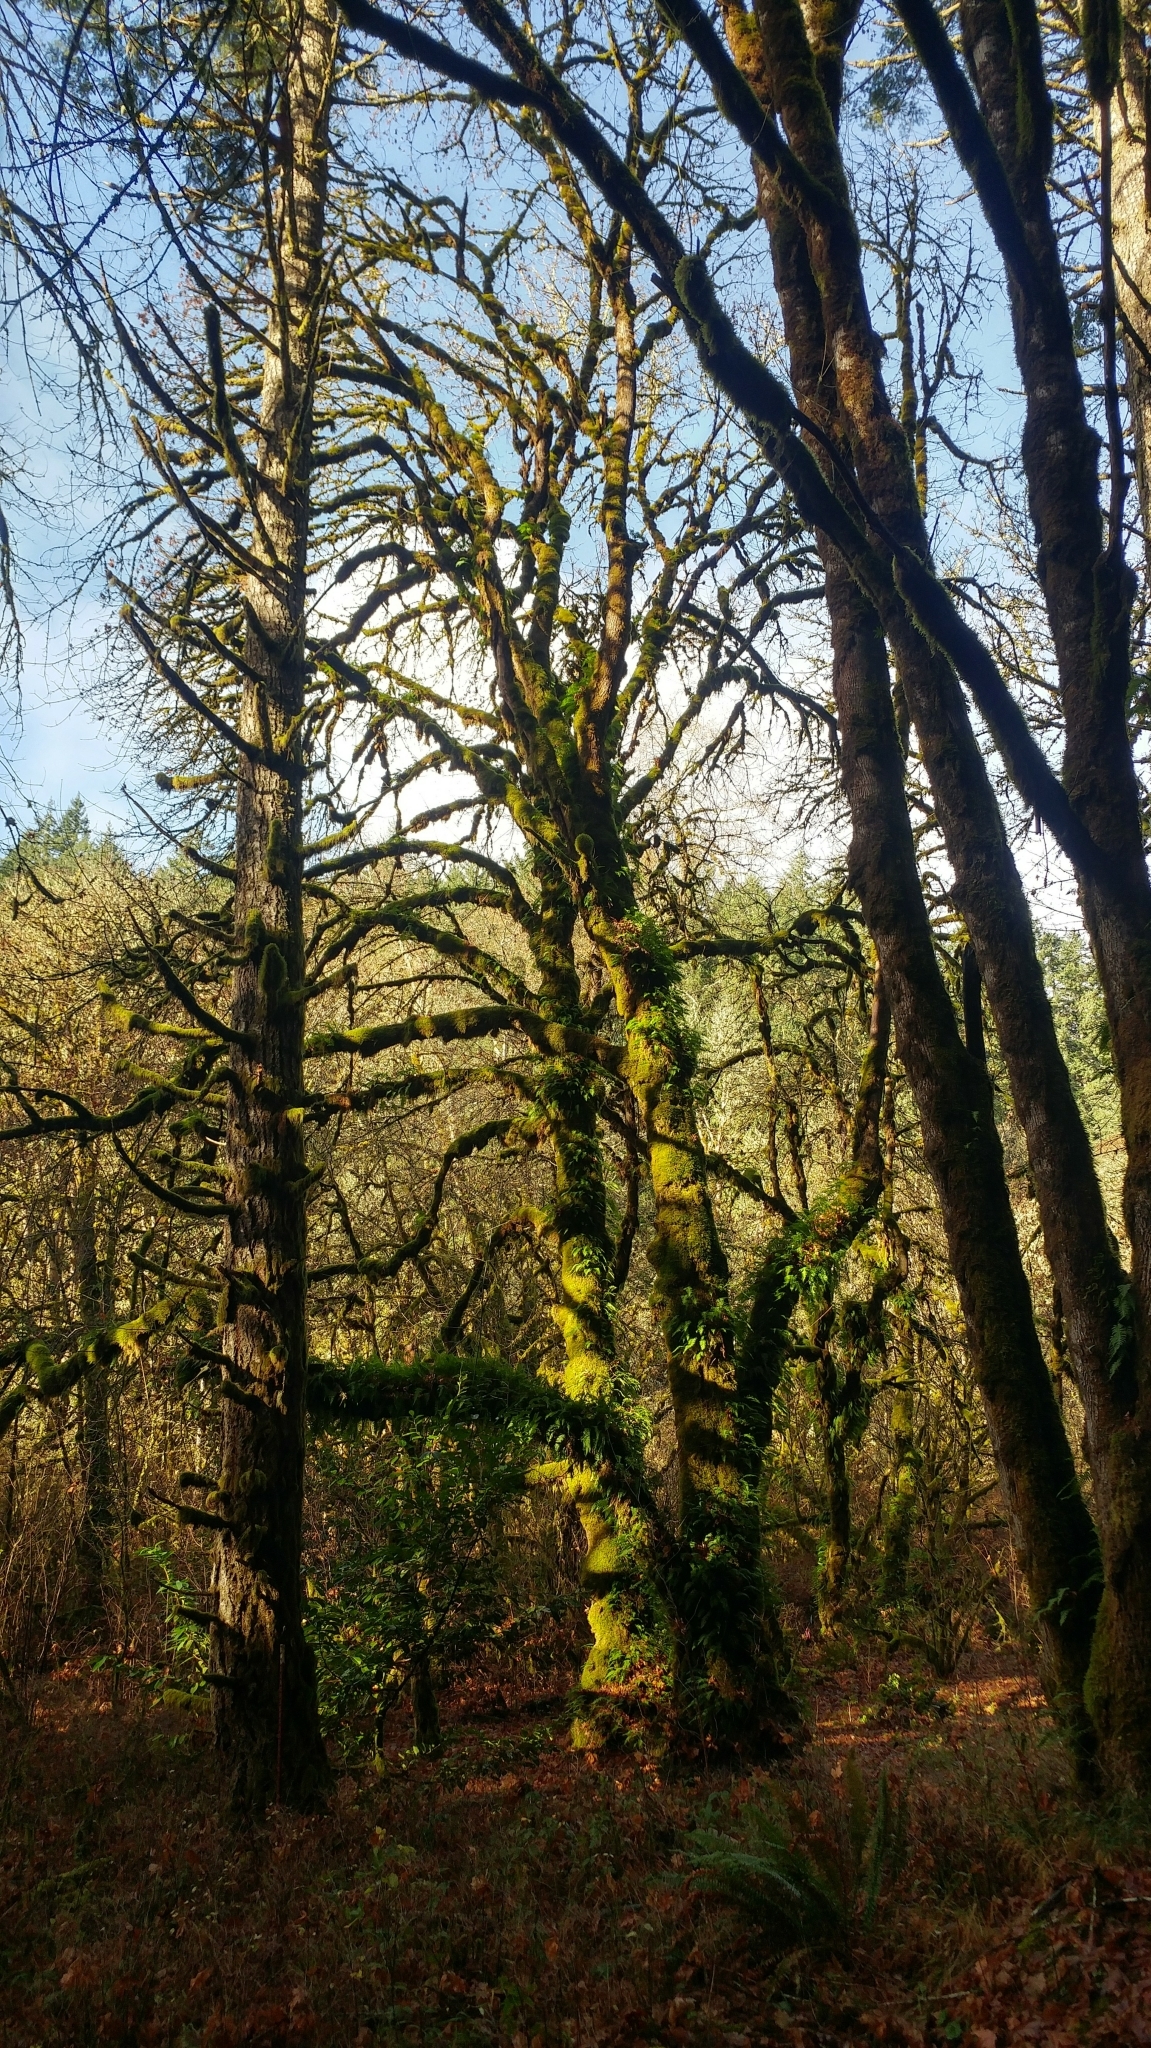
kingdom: Plantae
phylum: Tracheophyta
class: Magnoliopsida
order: Sapindales
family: Sapindaceae
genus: Acer
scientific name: Acer macrophyllum
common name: Oregon maple
